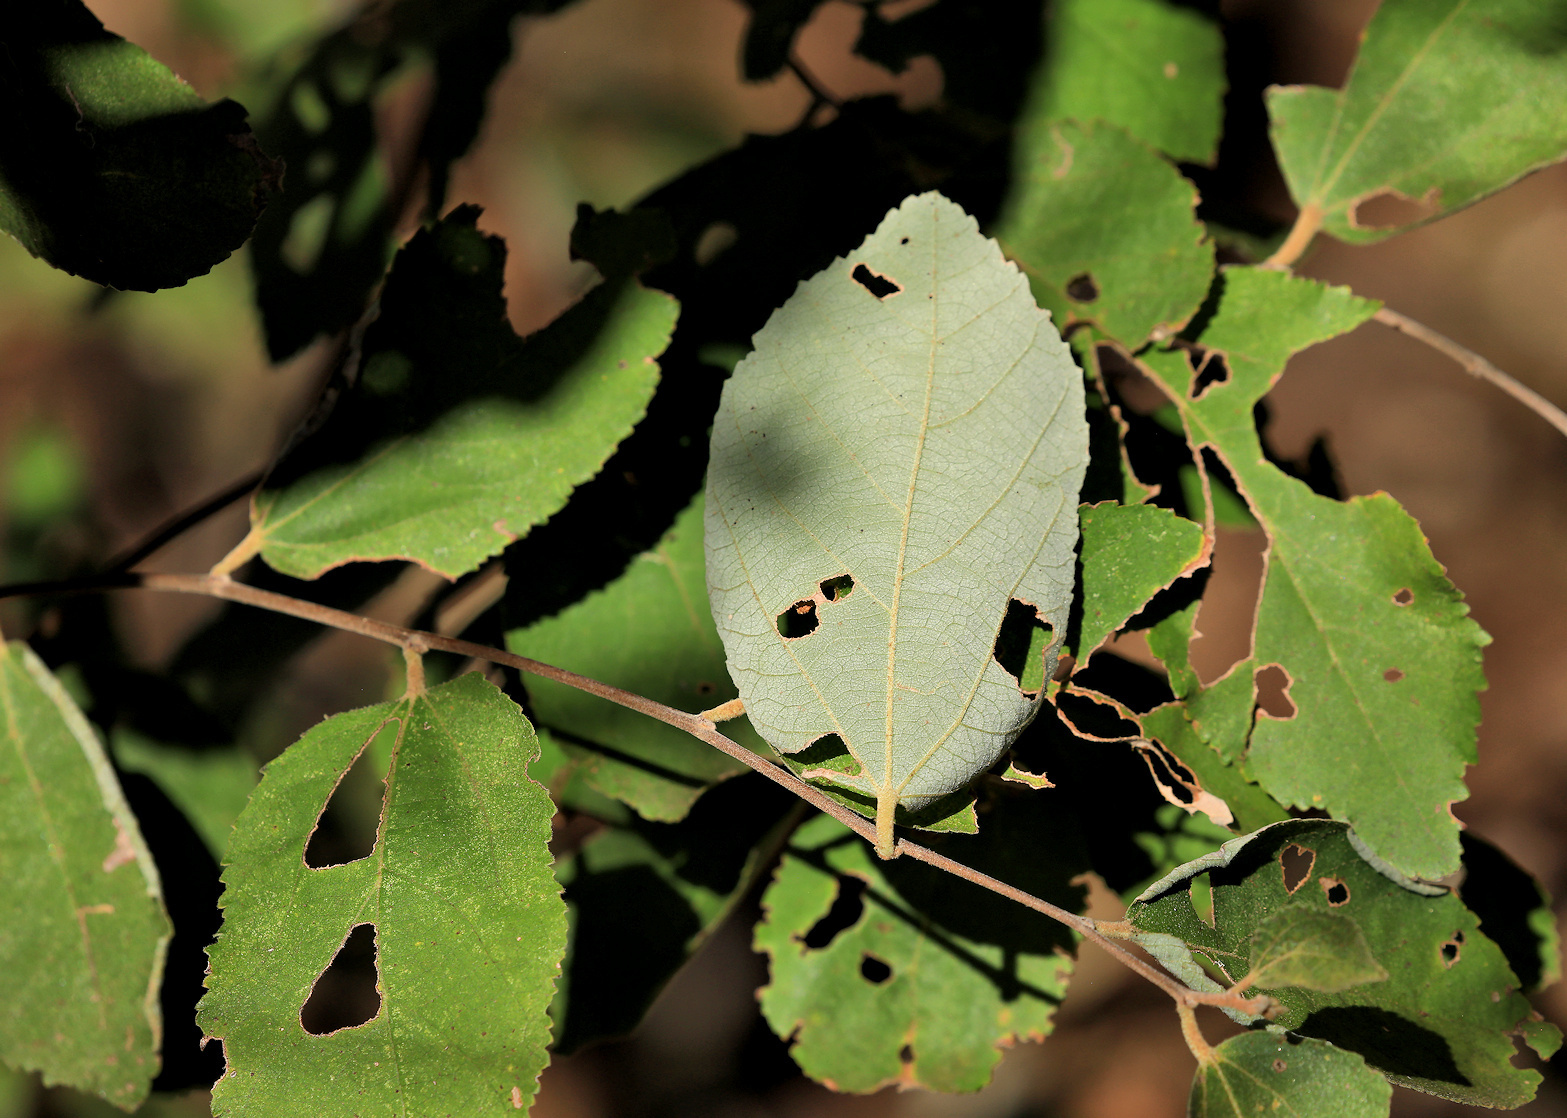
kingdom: Plantae
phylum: Tracheophyta
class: Magnoliopsida
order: Malvales
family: Malvaceae
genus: Grewia
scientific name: Grewia monticola
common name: Grey raisin
